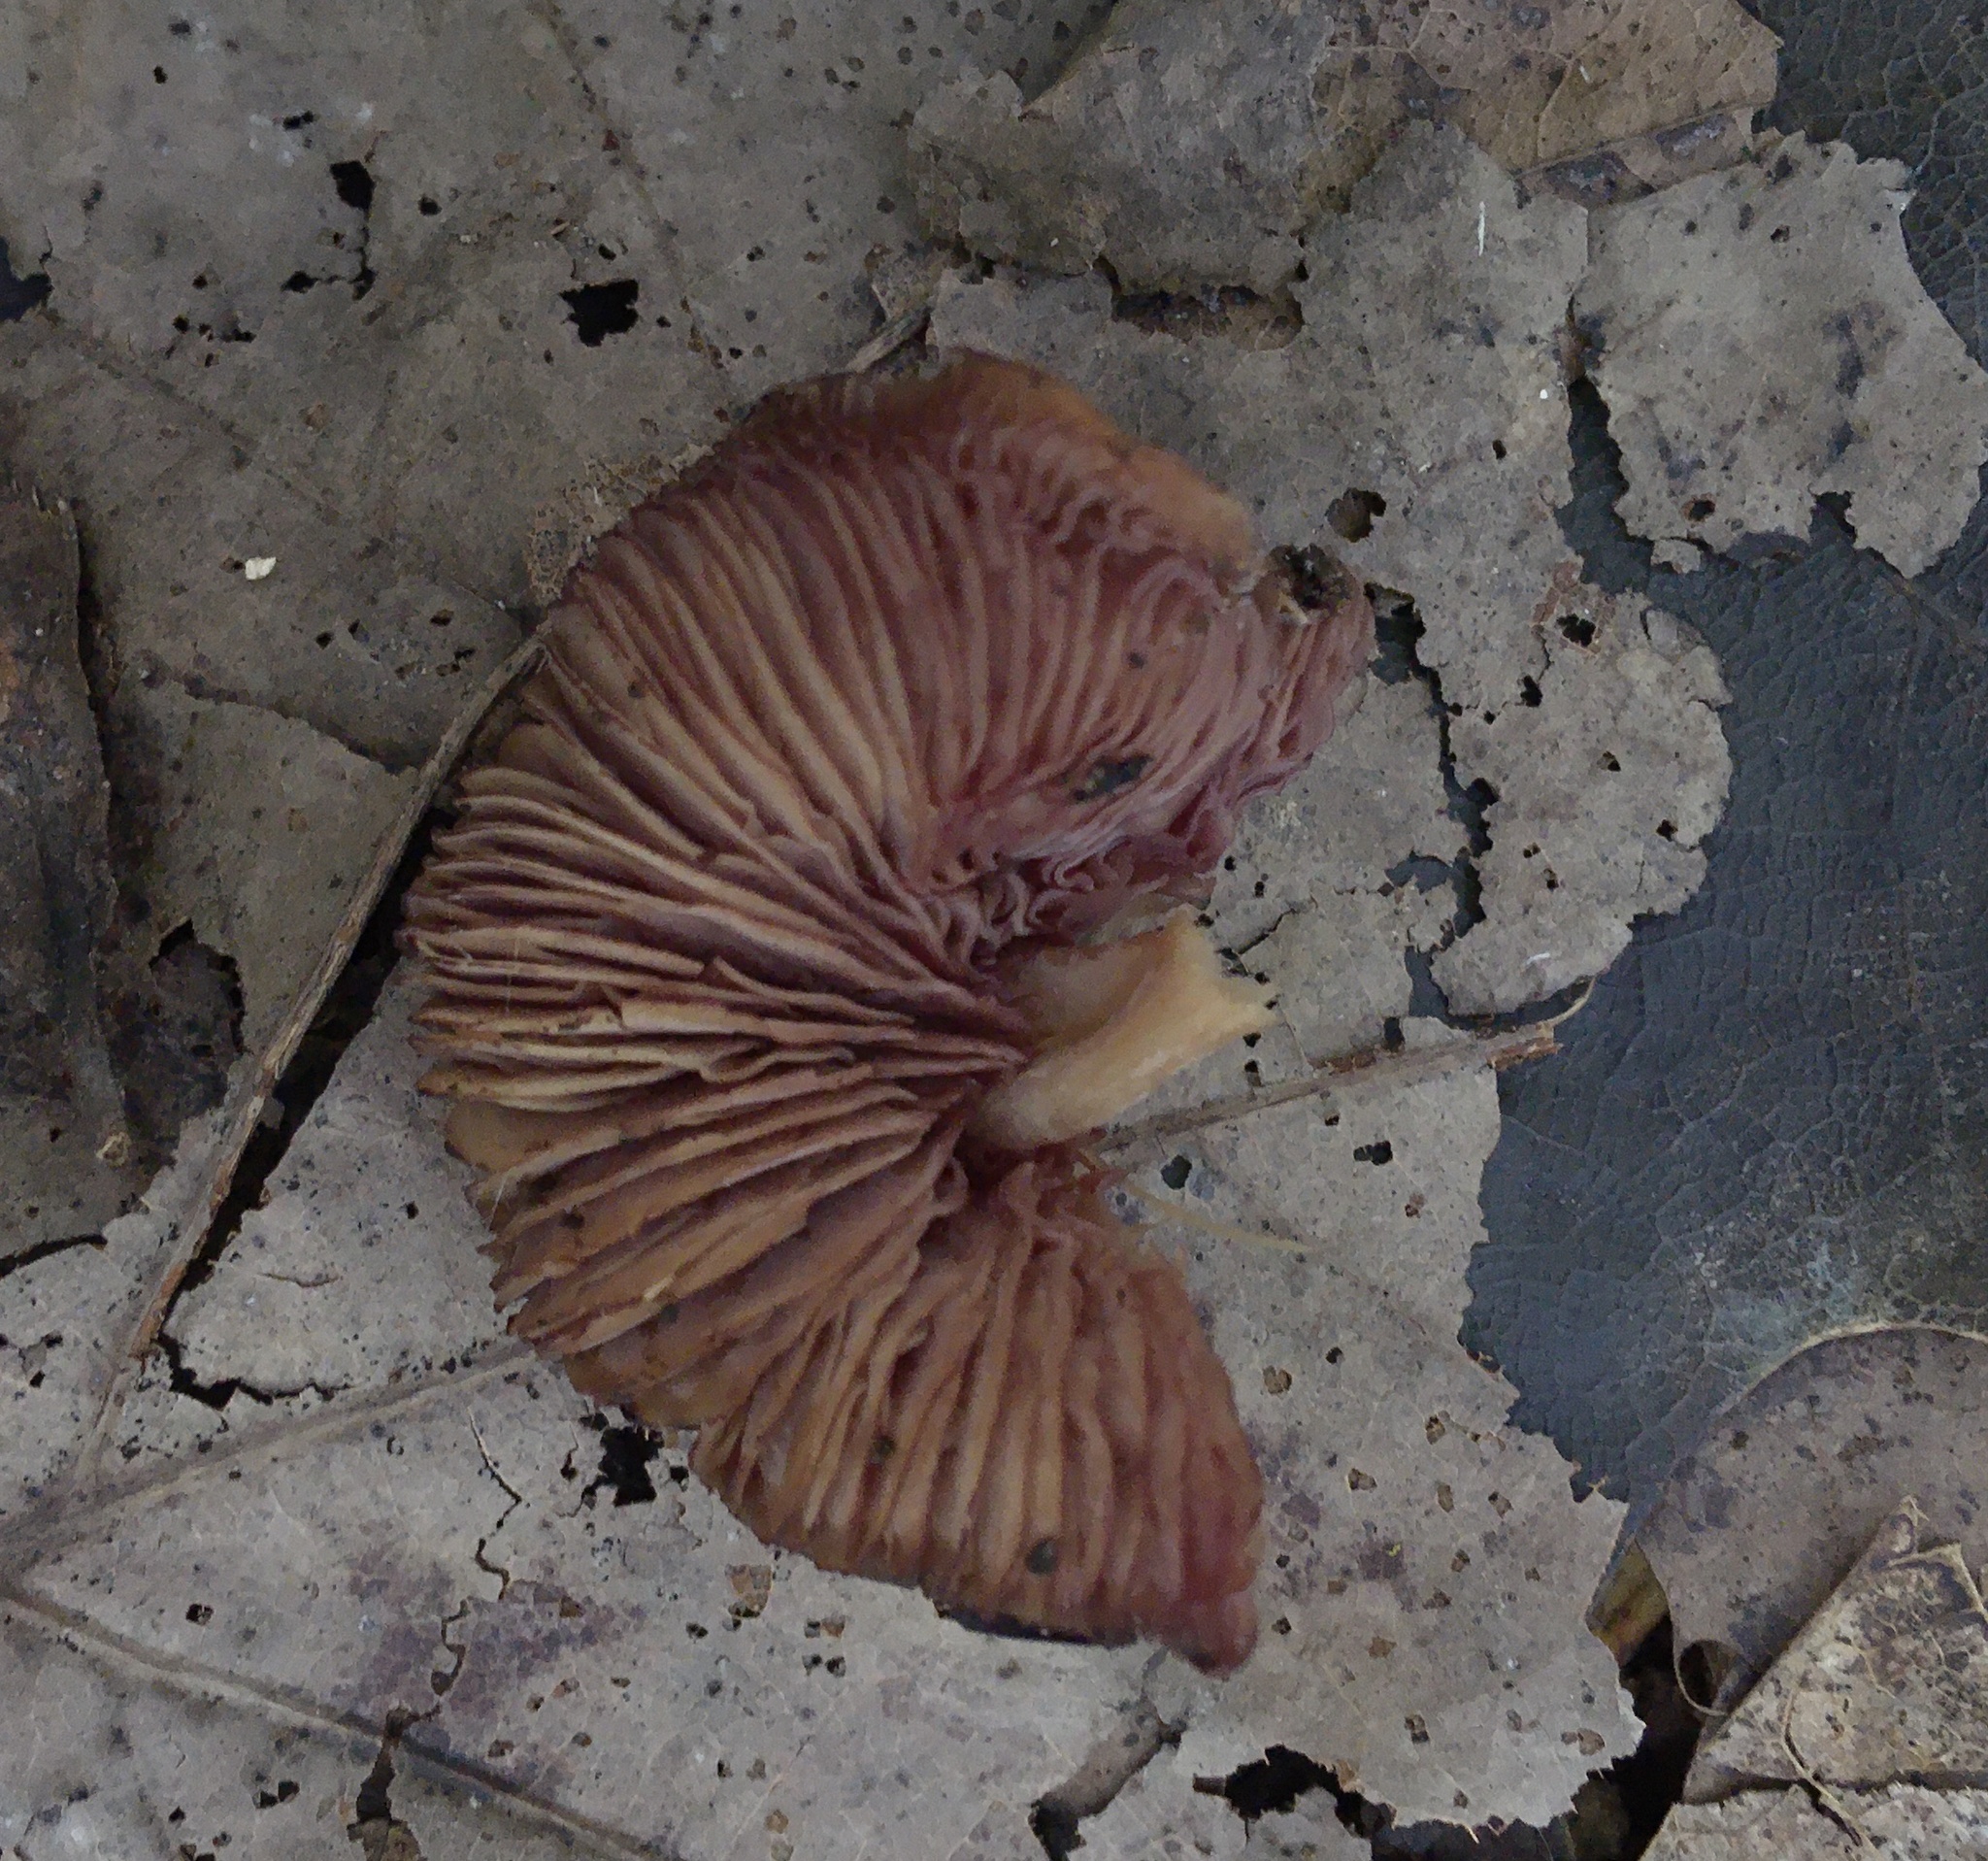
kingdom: Fungi
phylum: Basidiomycota
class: Agaricomycetes
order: Agaricales
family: Callistosporiaceae
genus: Callistosporium
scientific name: Callistosporium purpureomarginatum
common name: Purple-edged lute
